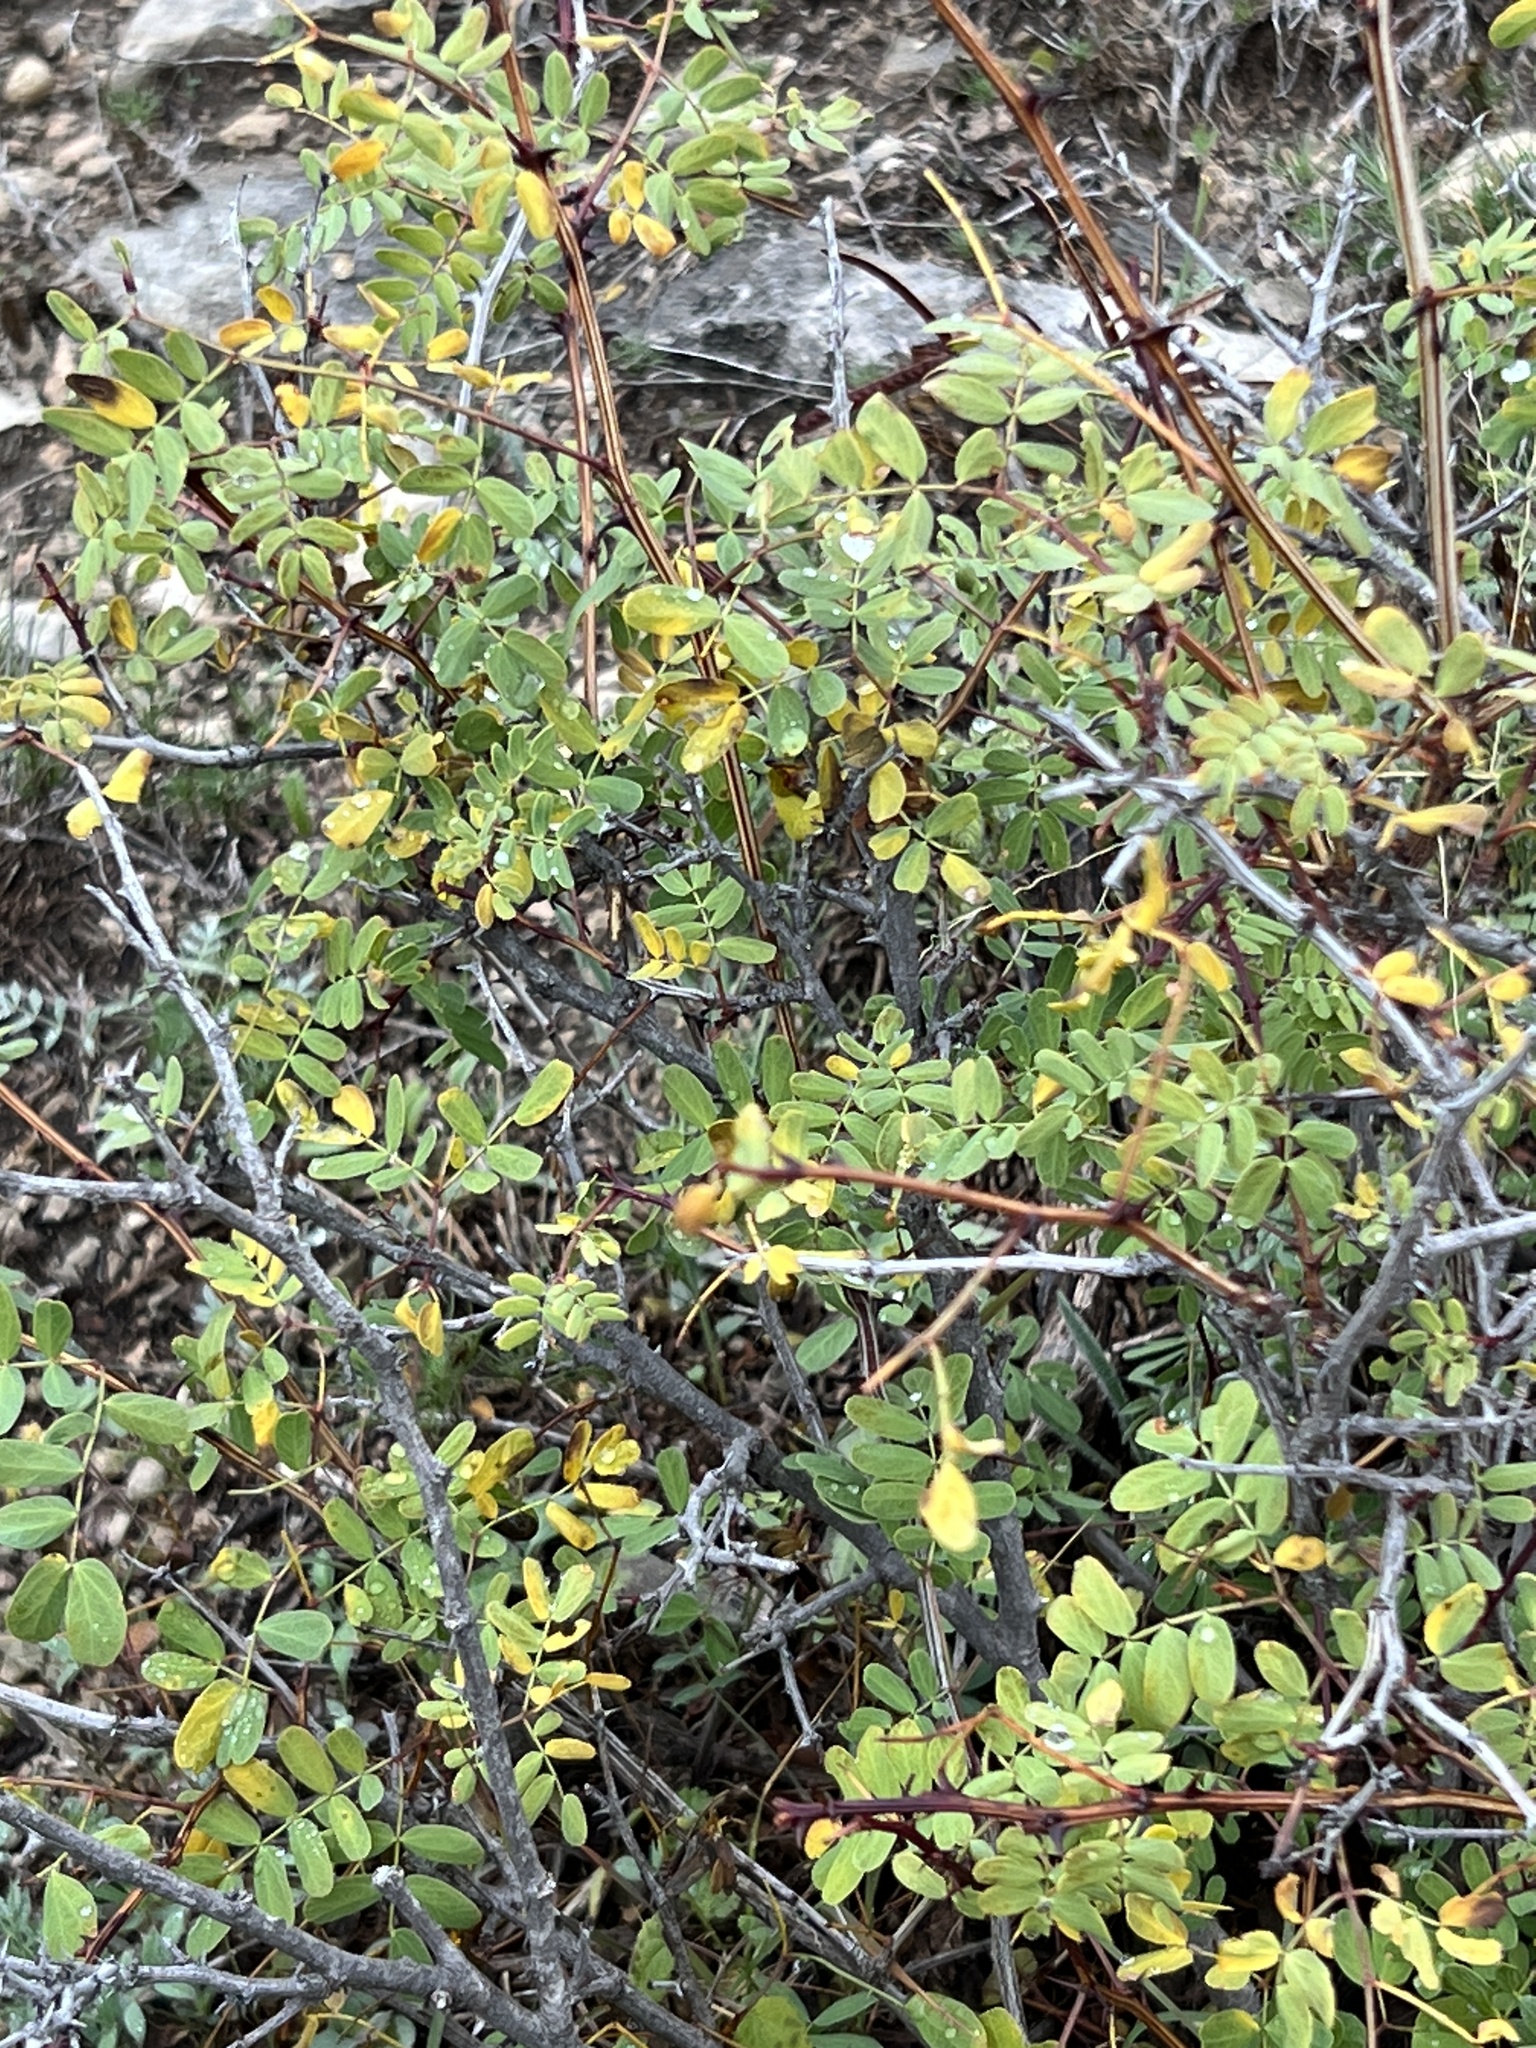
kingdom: Plantae
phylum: Tracheophyta
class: Magnoliopsida
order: Fabales
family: Fabaceae
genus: Senegalia
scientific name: Senegalia roemeriana
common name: Roemer's acacia
